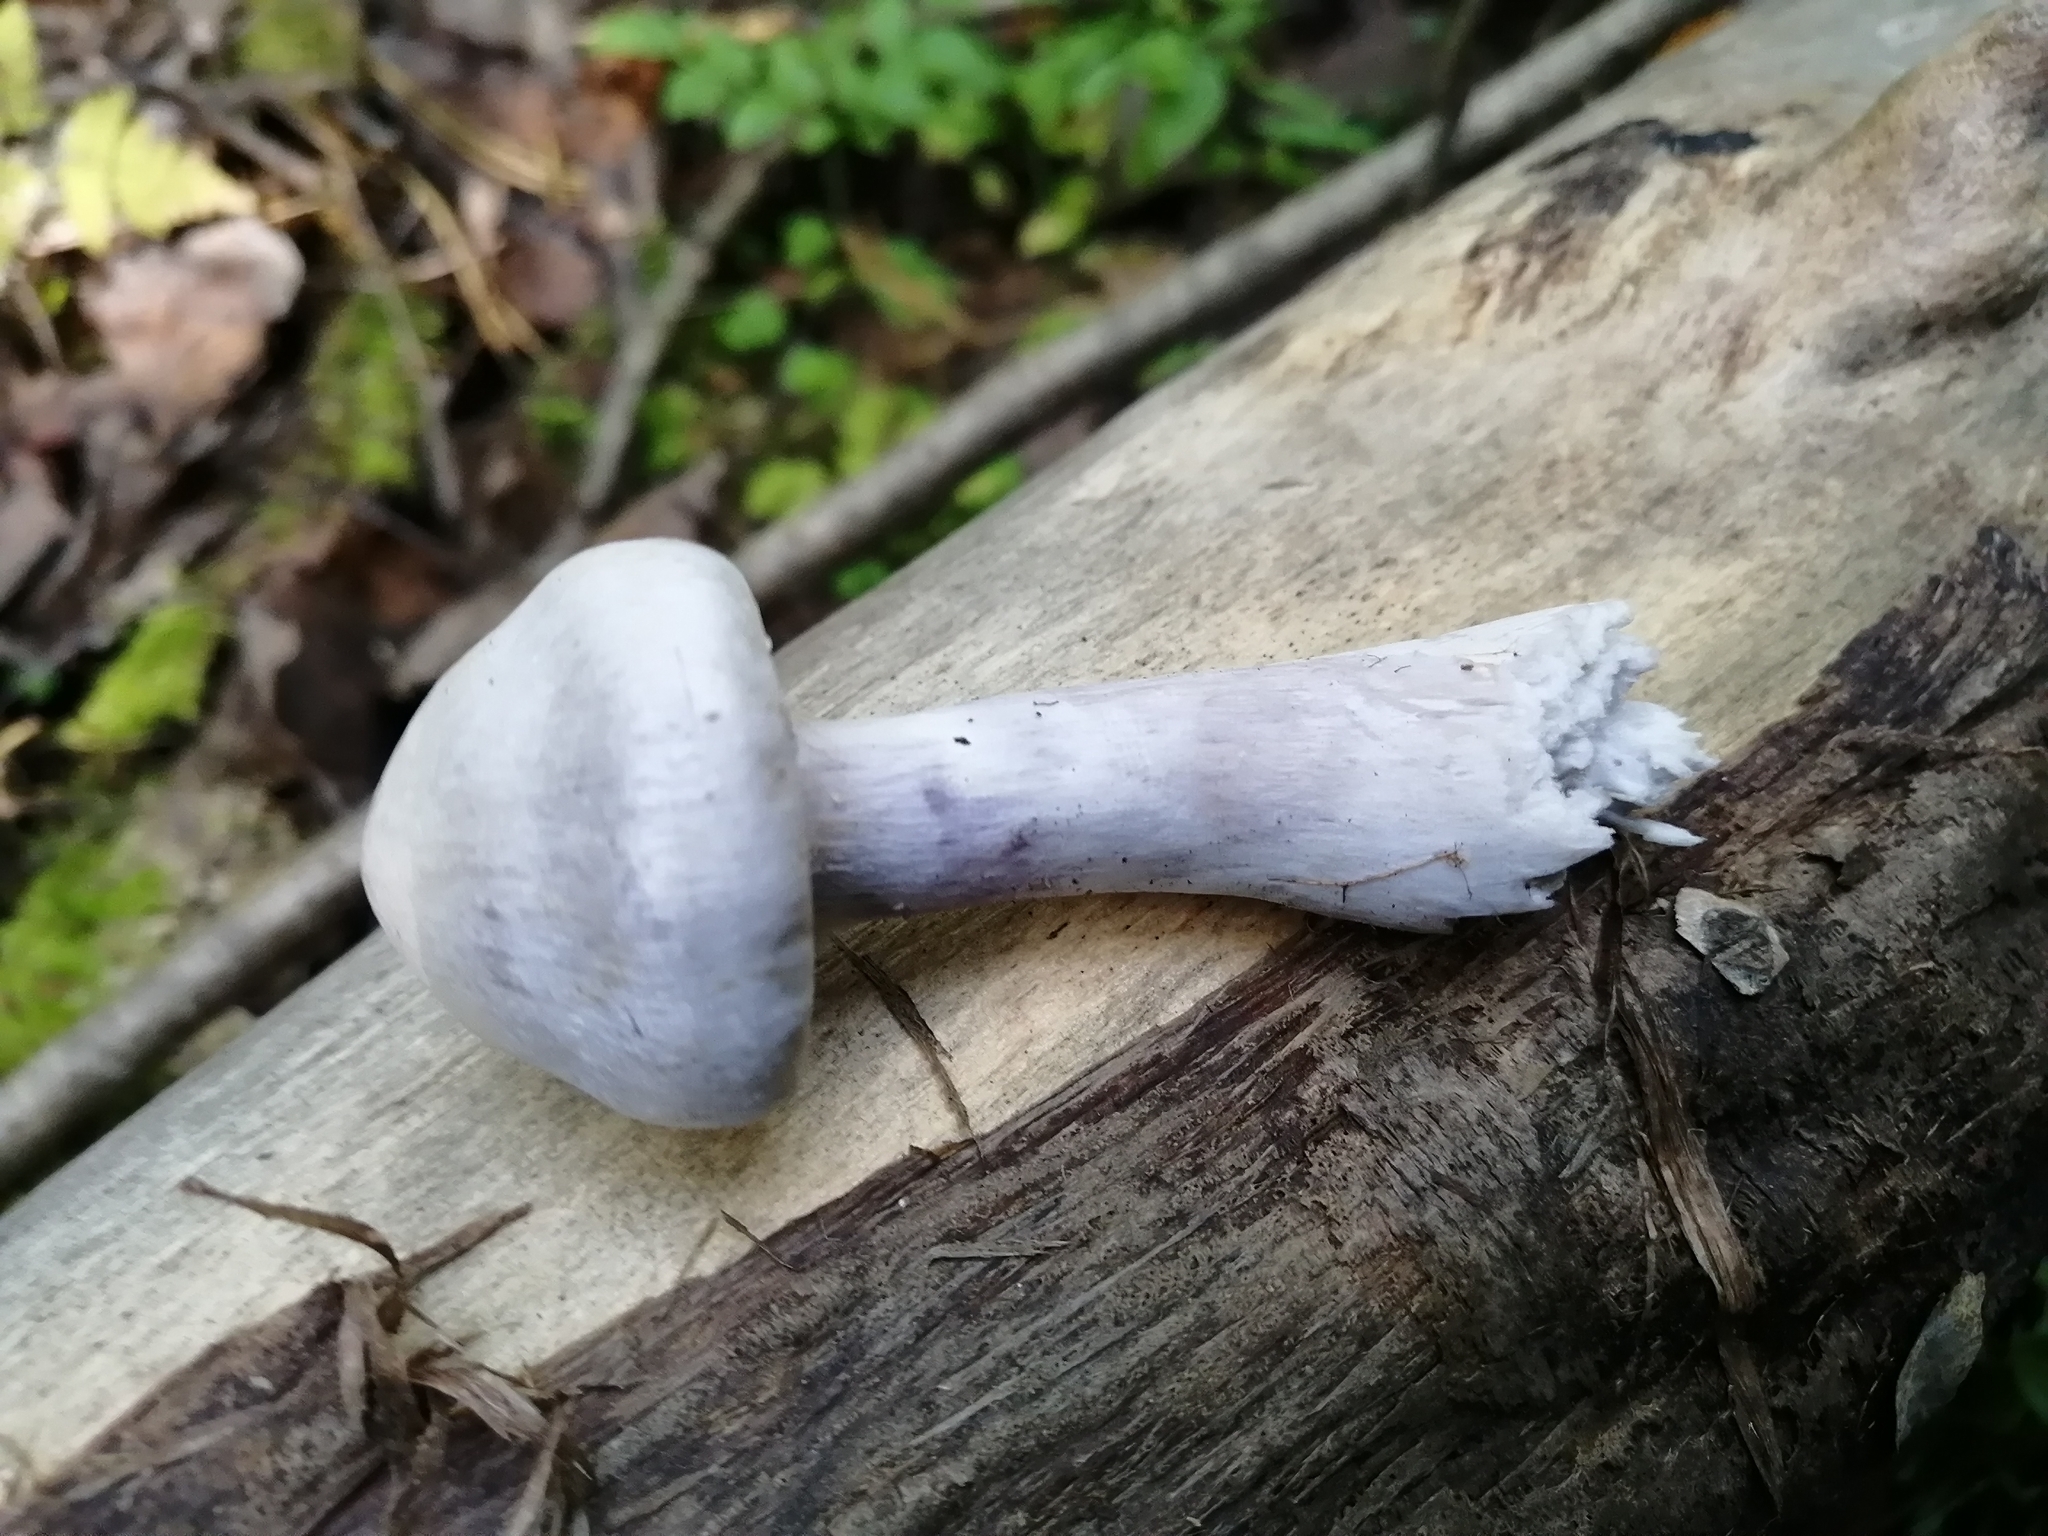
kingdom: Fungi
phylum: Basidiomycota
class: Agaricomycetes
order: Agaricales
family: Cortinariaceae
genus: Cortinarius
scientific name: Cortinarius alboviolaceus
